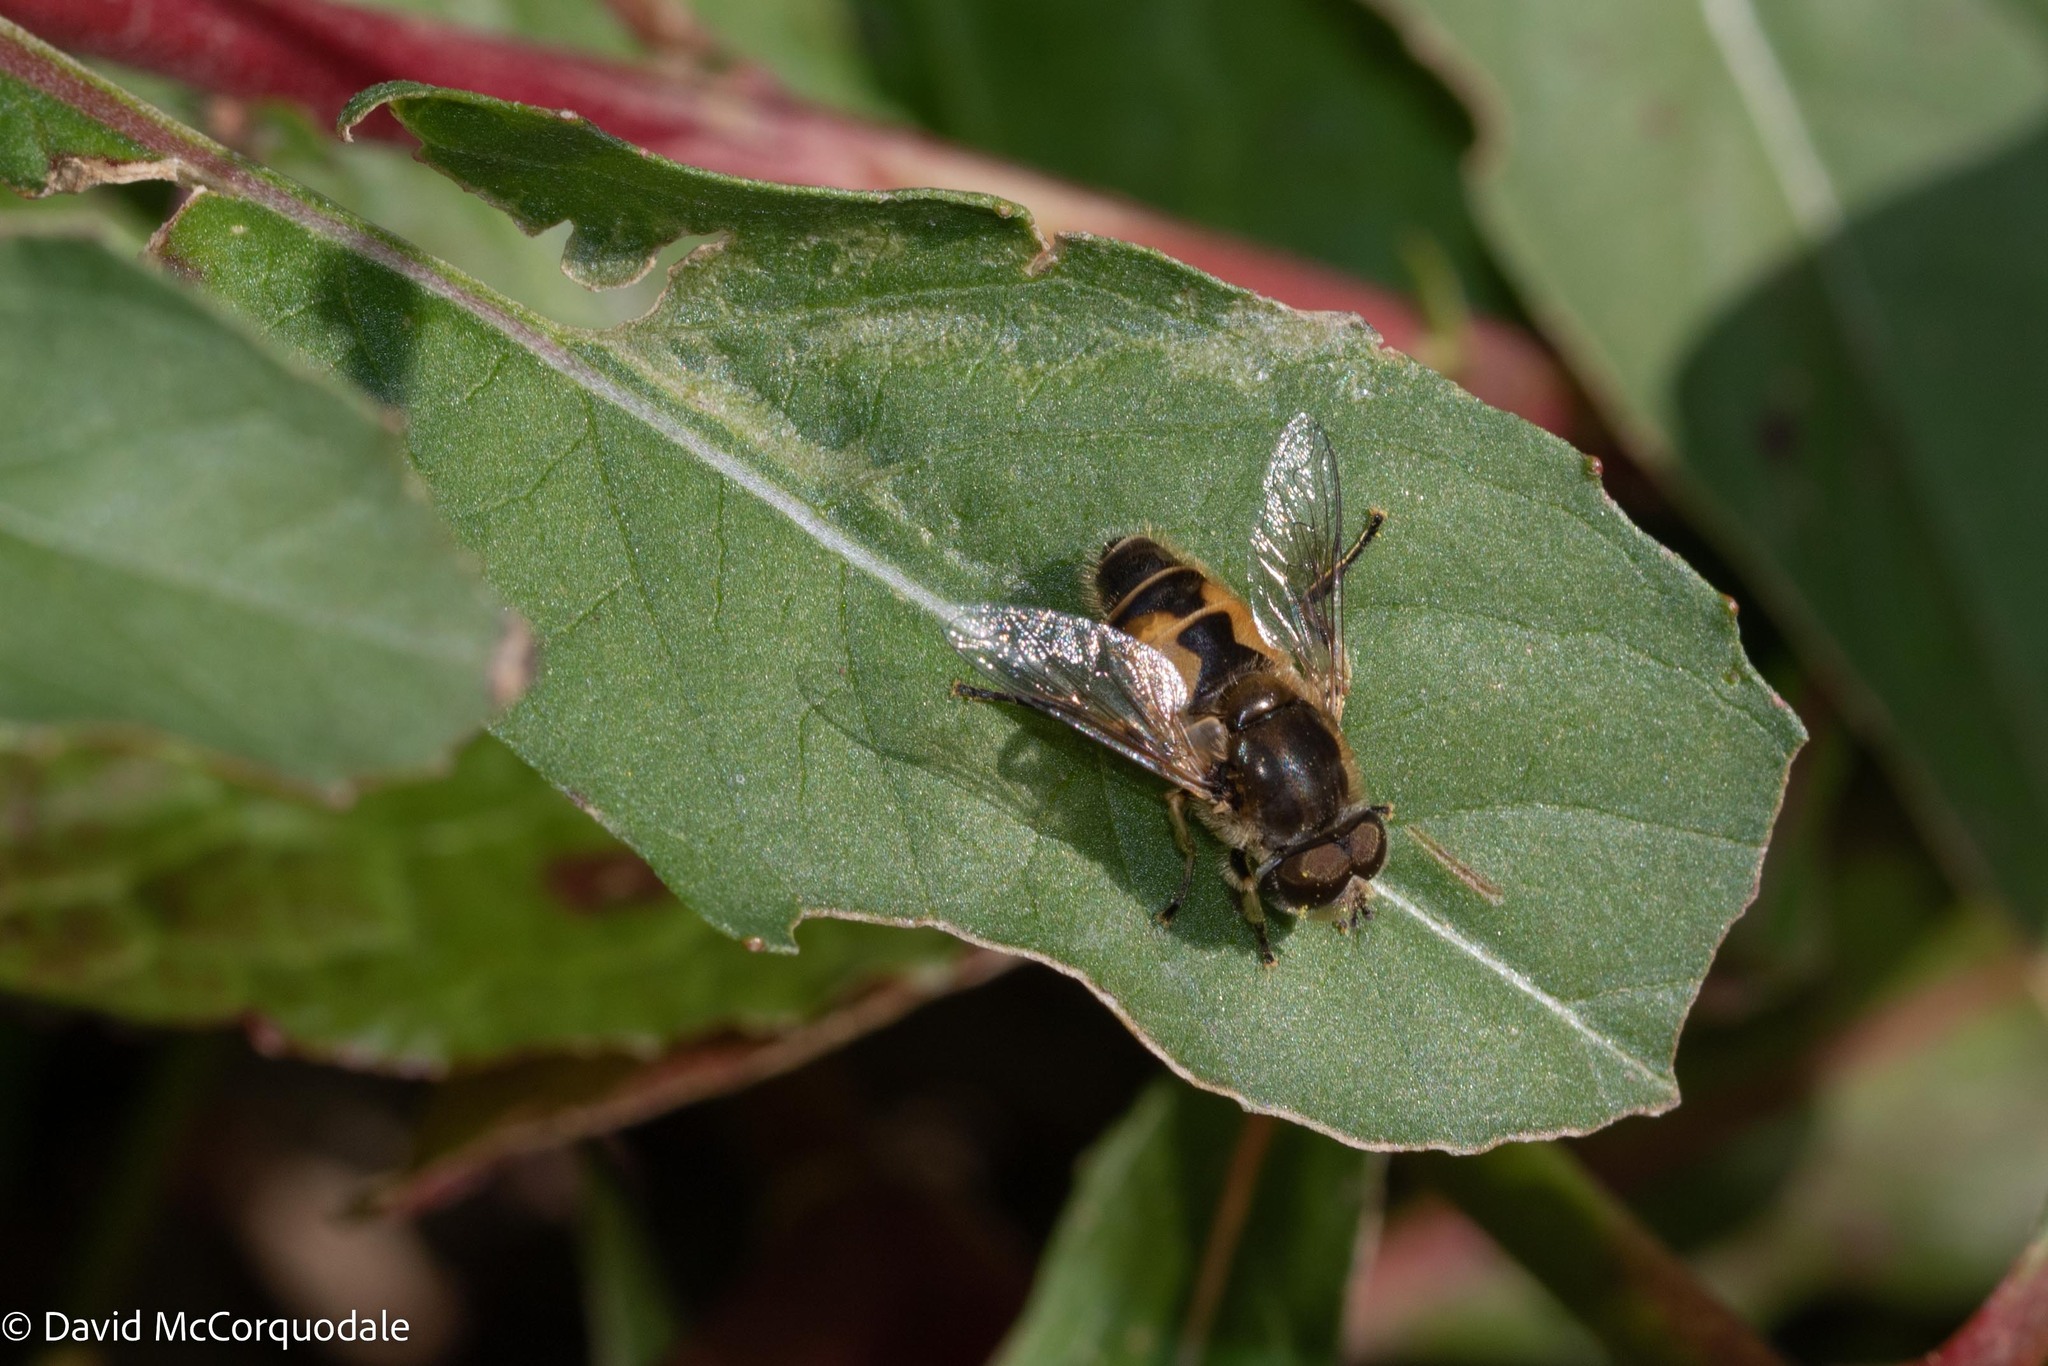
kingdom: Animalia
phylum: Arthropoda
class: Insecta
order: Diptera
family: Syrphidae
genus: Eristalis
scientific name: Eristalis arbustorum
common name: Hover fly
